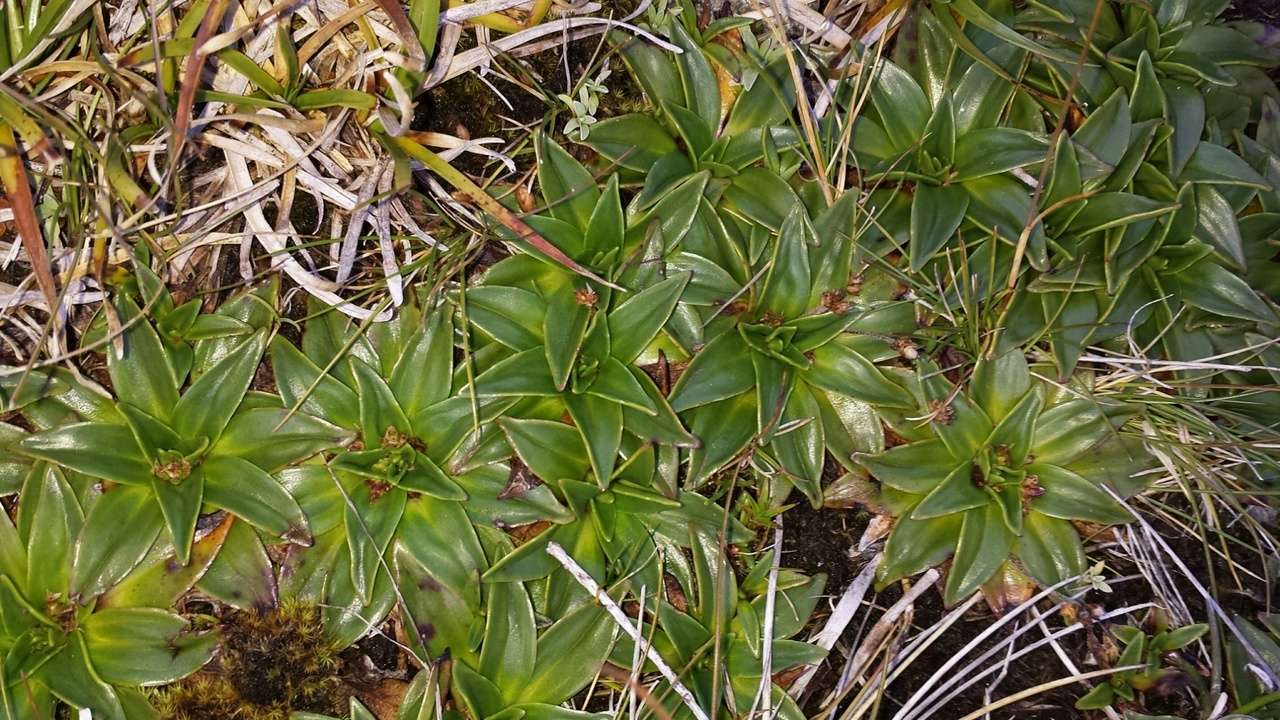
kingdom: Plantae
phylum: Tracheophyta
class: Magnoliopsida
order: Lamiales
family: Plantaginaceae
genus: Plantago
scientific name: Plantago muelleri
